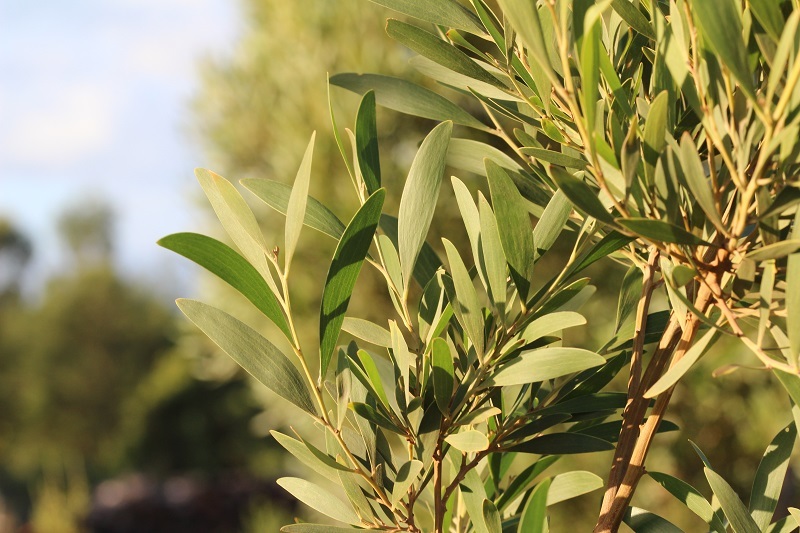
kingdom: Plantae
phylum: Tracheophyta
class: Magnoliopsida
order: Fabales
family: Fabaceae
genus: Acacia
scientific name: Acacia melanoxylon
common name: Blackwood
